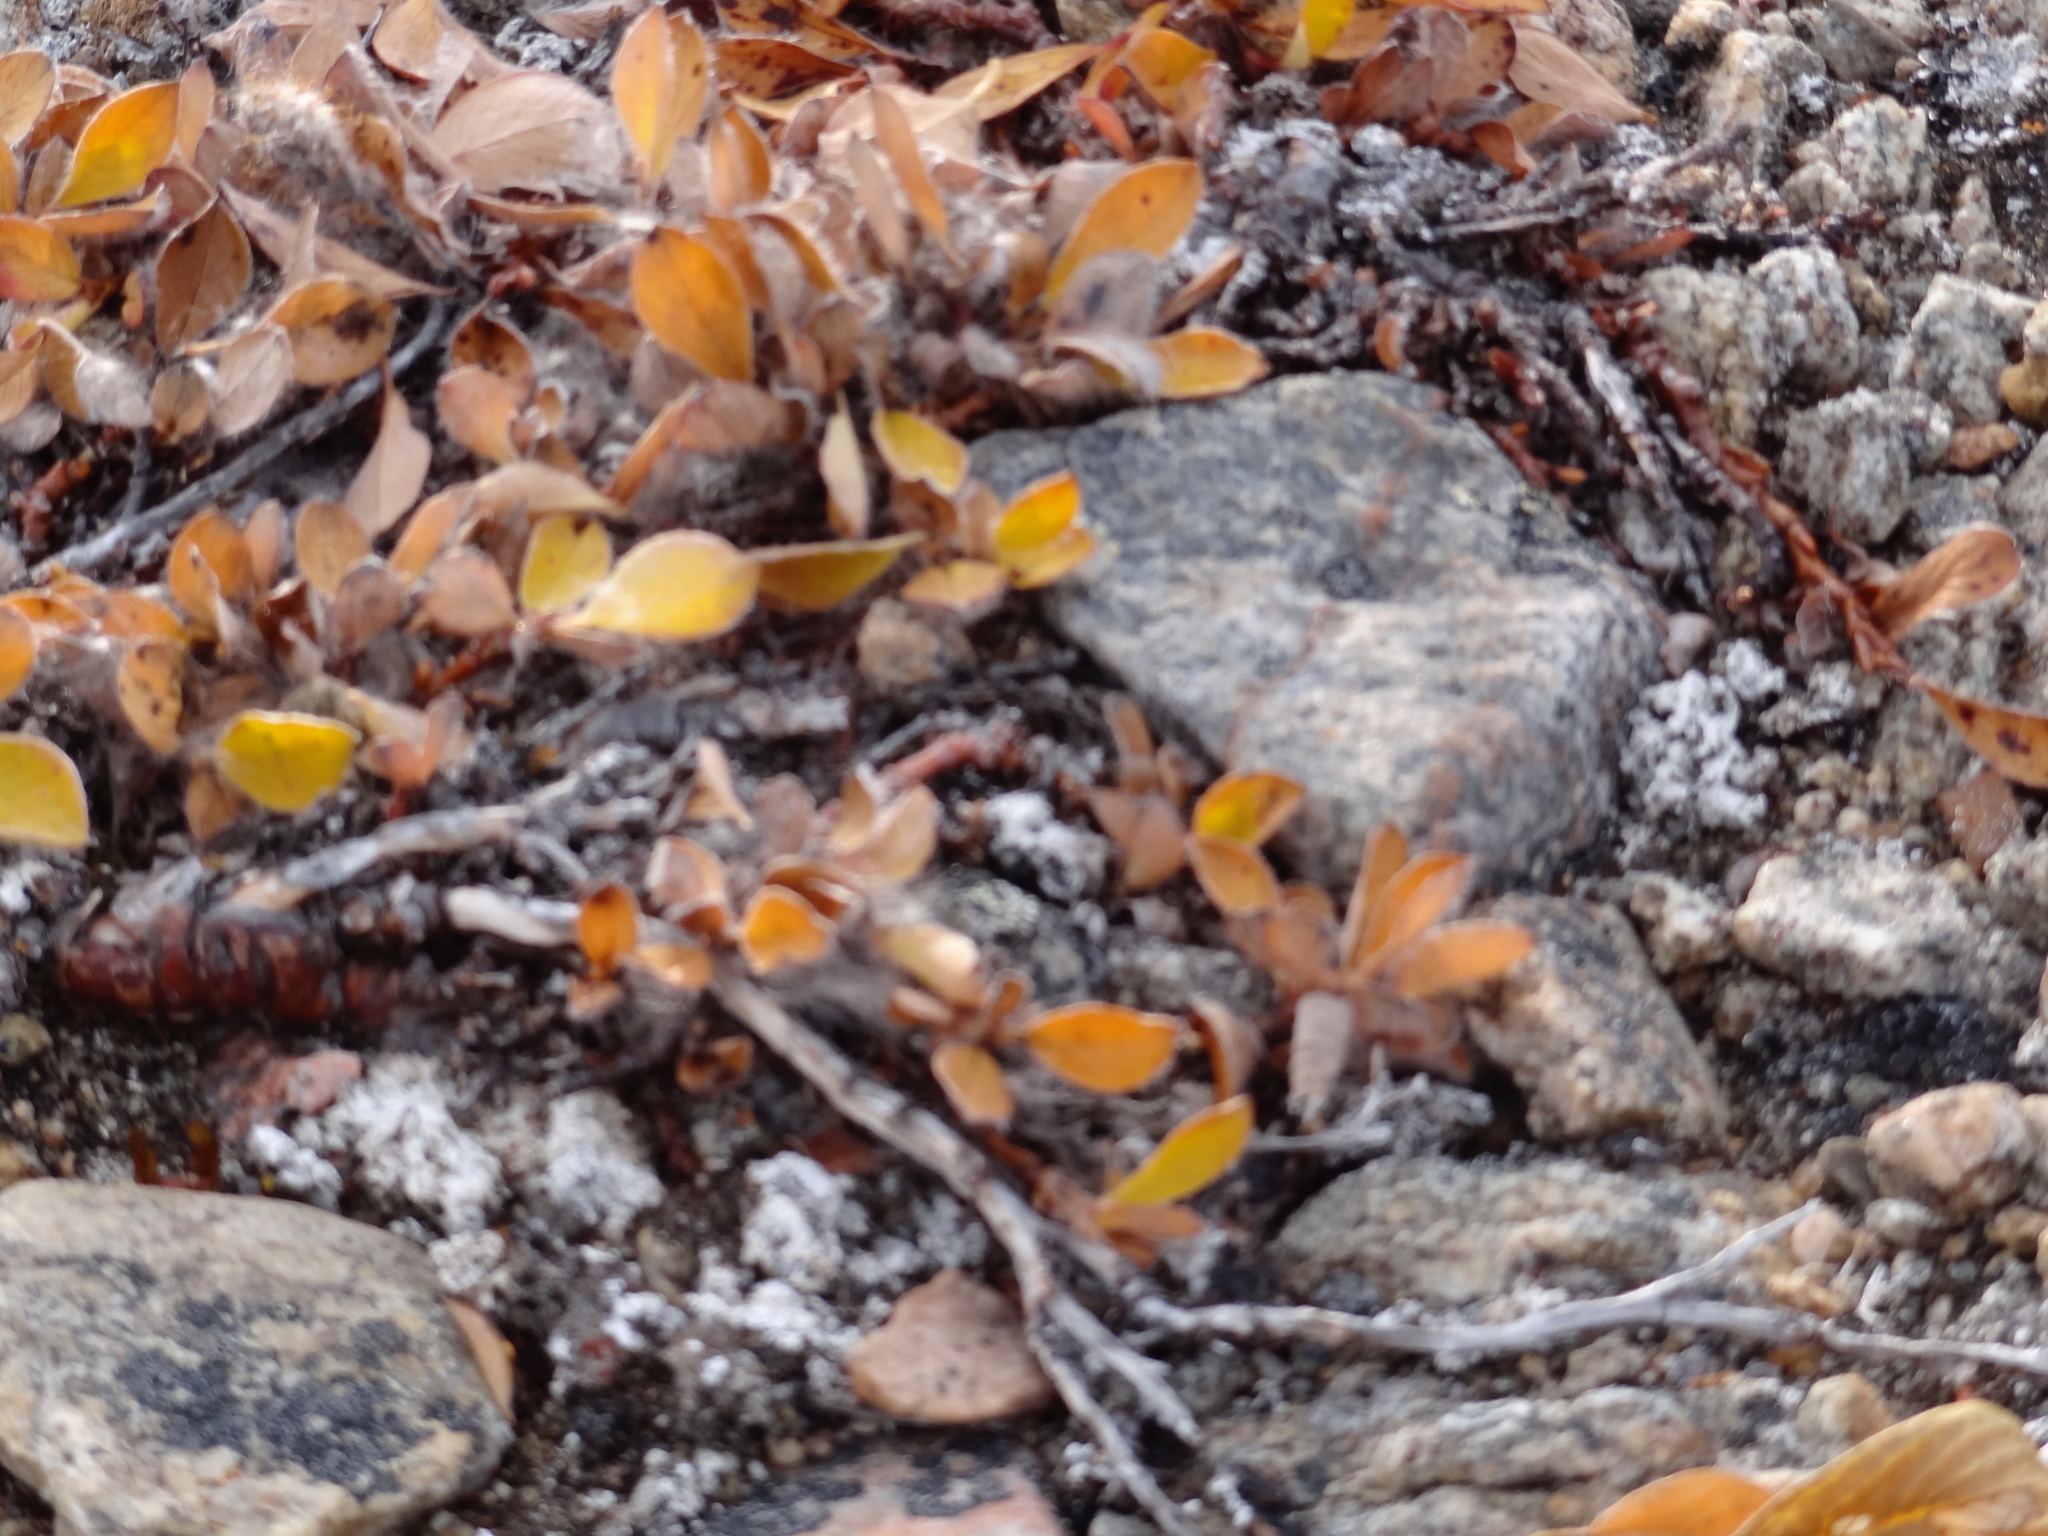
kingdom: Plantae
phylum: Tracheophyta
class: Magnoliopsida
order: Malpighiales
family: Salicaceae
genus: Salix
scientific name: Salix arctica
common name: Arctic willow
